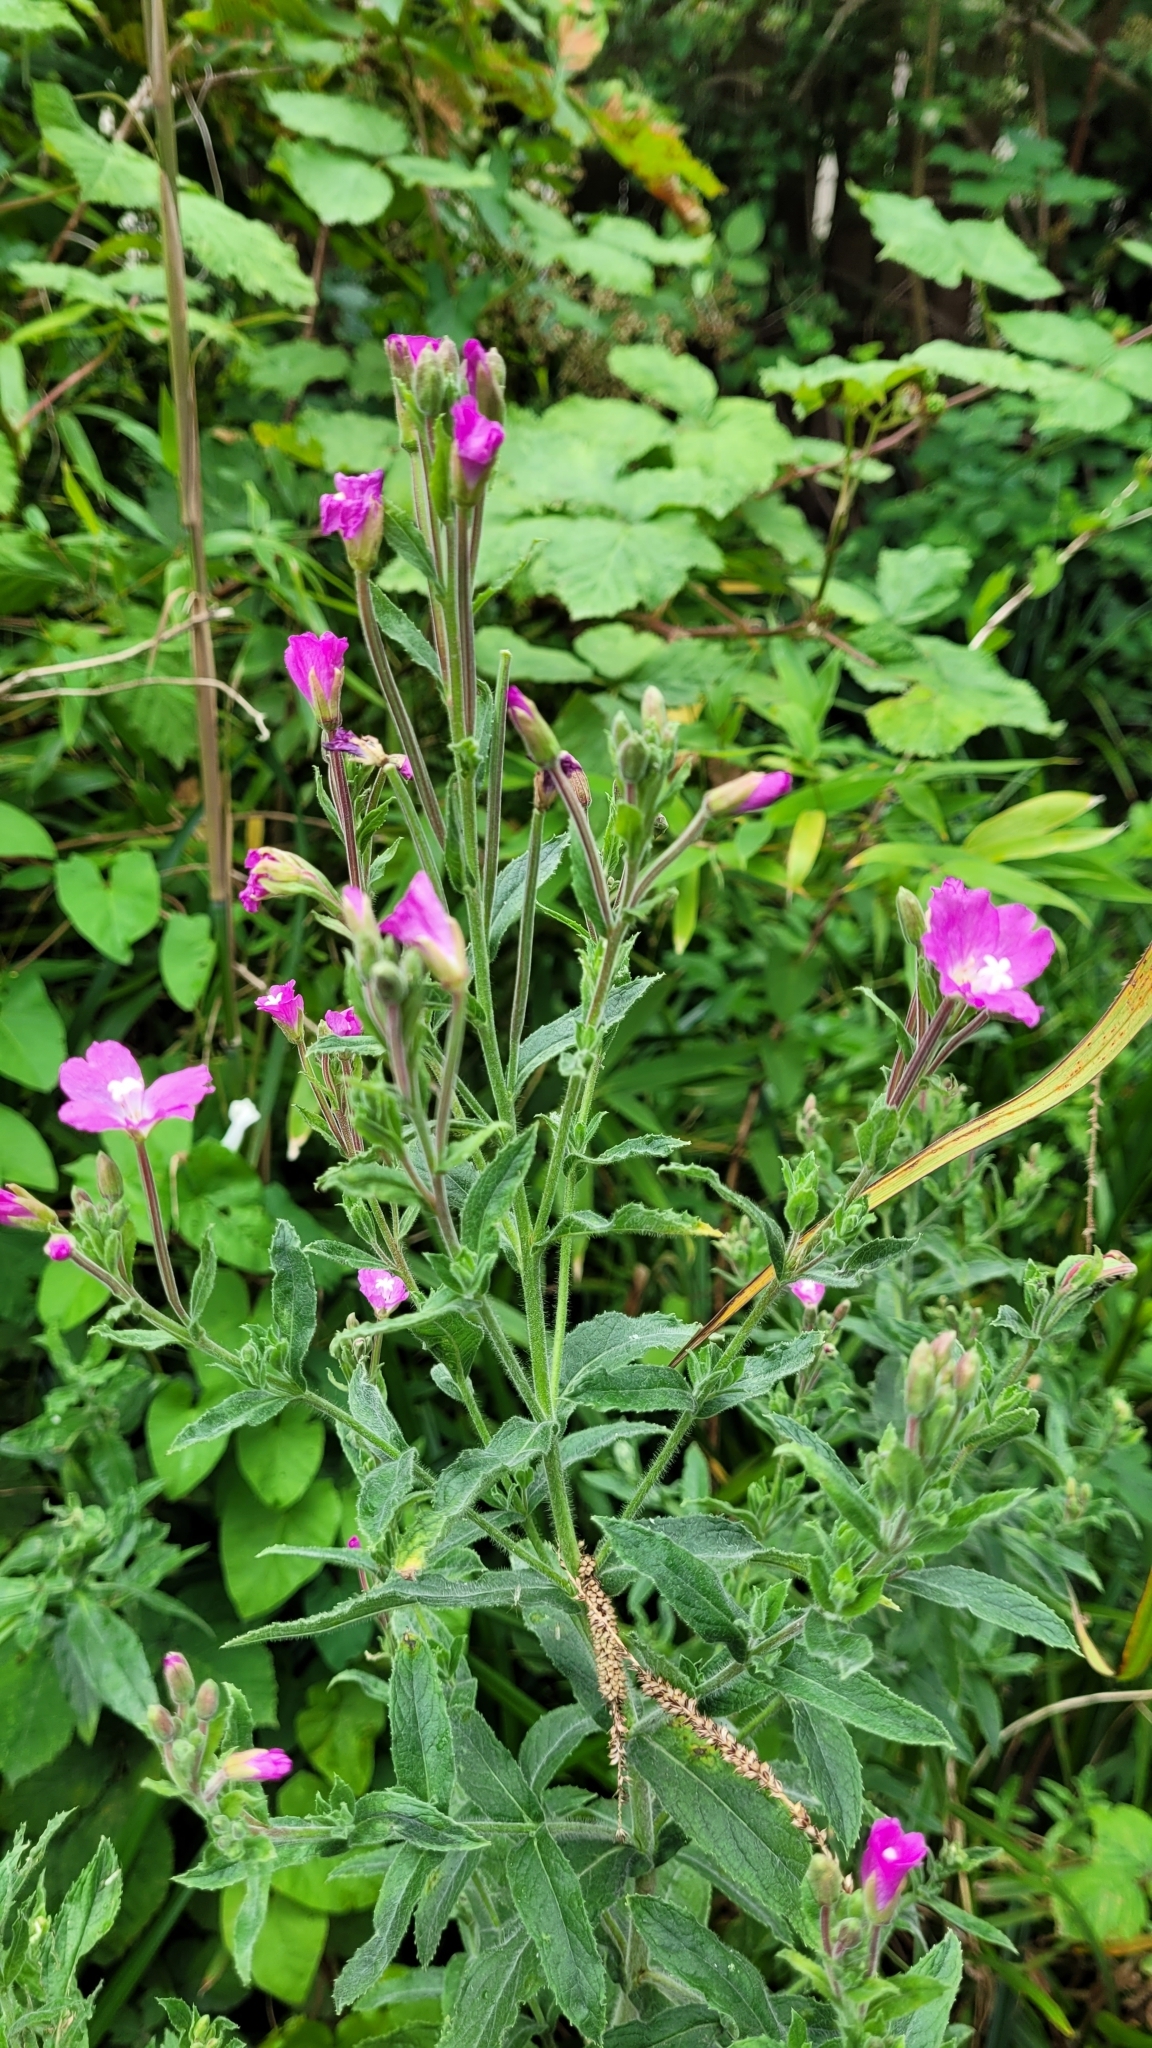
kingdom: Plantae
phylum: Tracheophyta
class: Magnoliopsida
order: Myrtales
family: Onagraceae
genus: Epilobium
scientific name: Epilobium hirsutum
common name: Great willowherb
